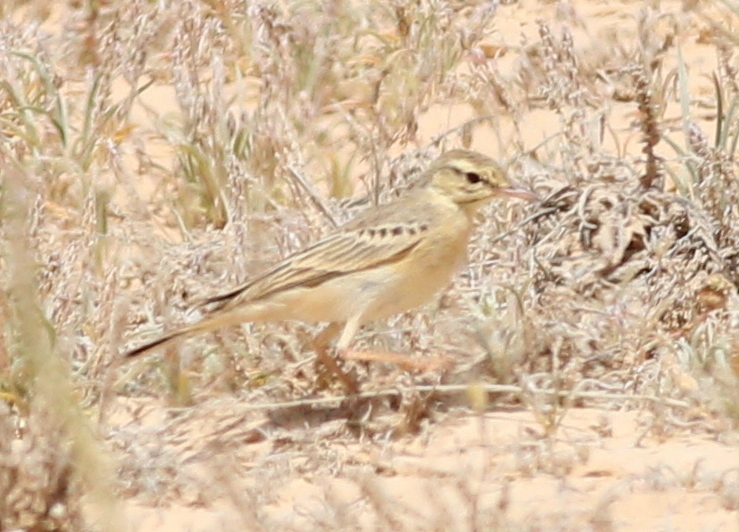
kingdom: Animalia
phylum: Chordata
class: Aves
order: Passeriformes
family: Motacillidae
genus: Anthus
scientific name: Anthus campestris
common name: Tawny pipit
